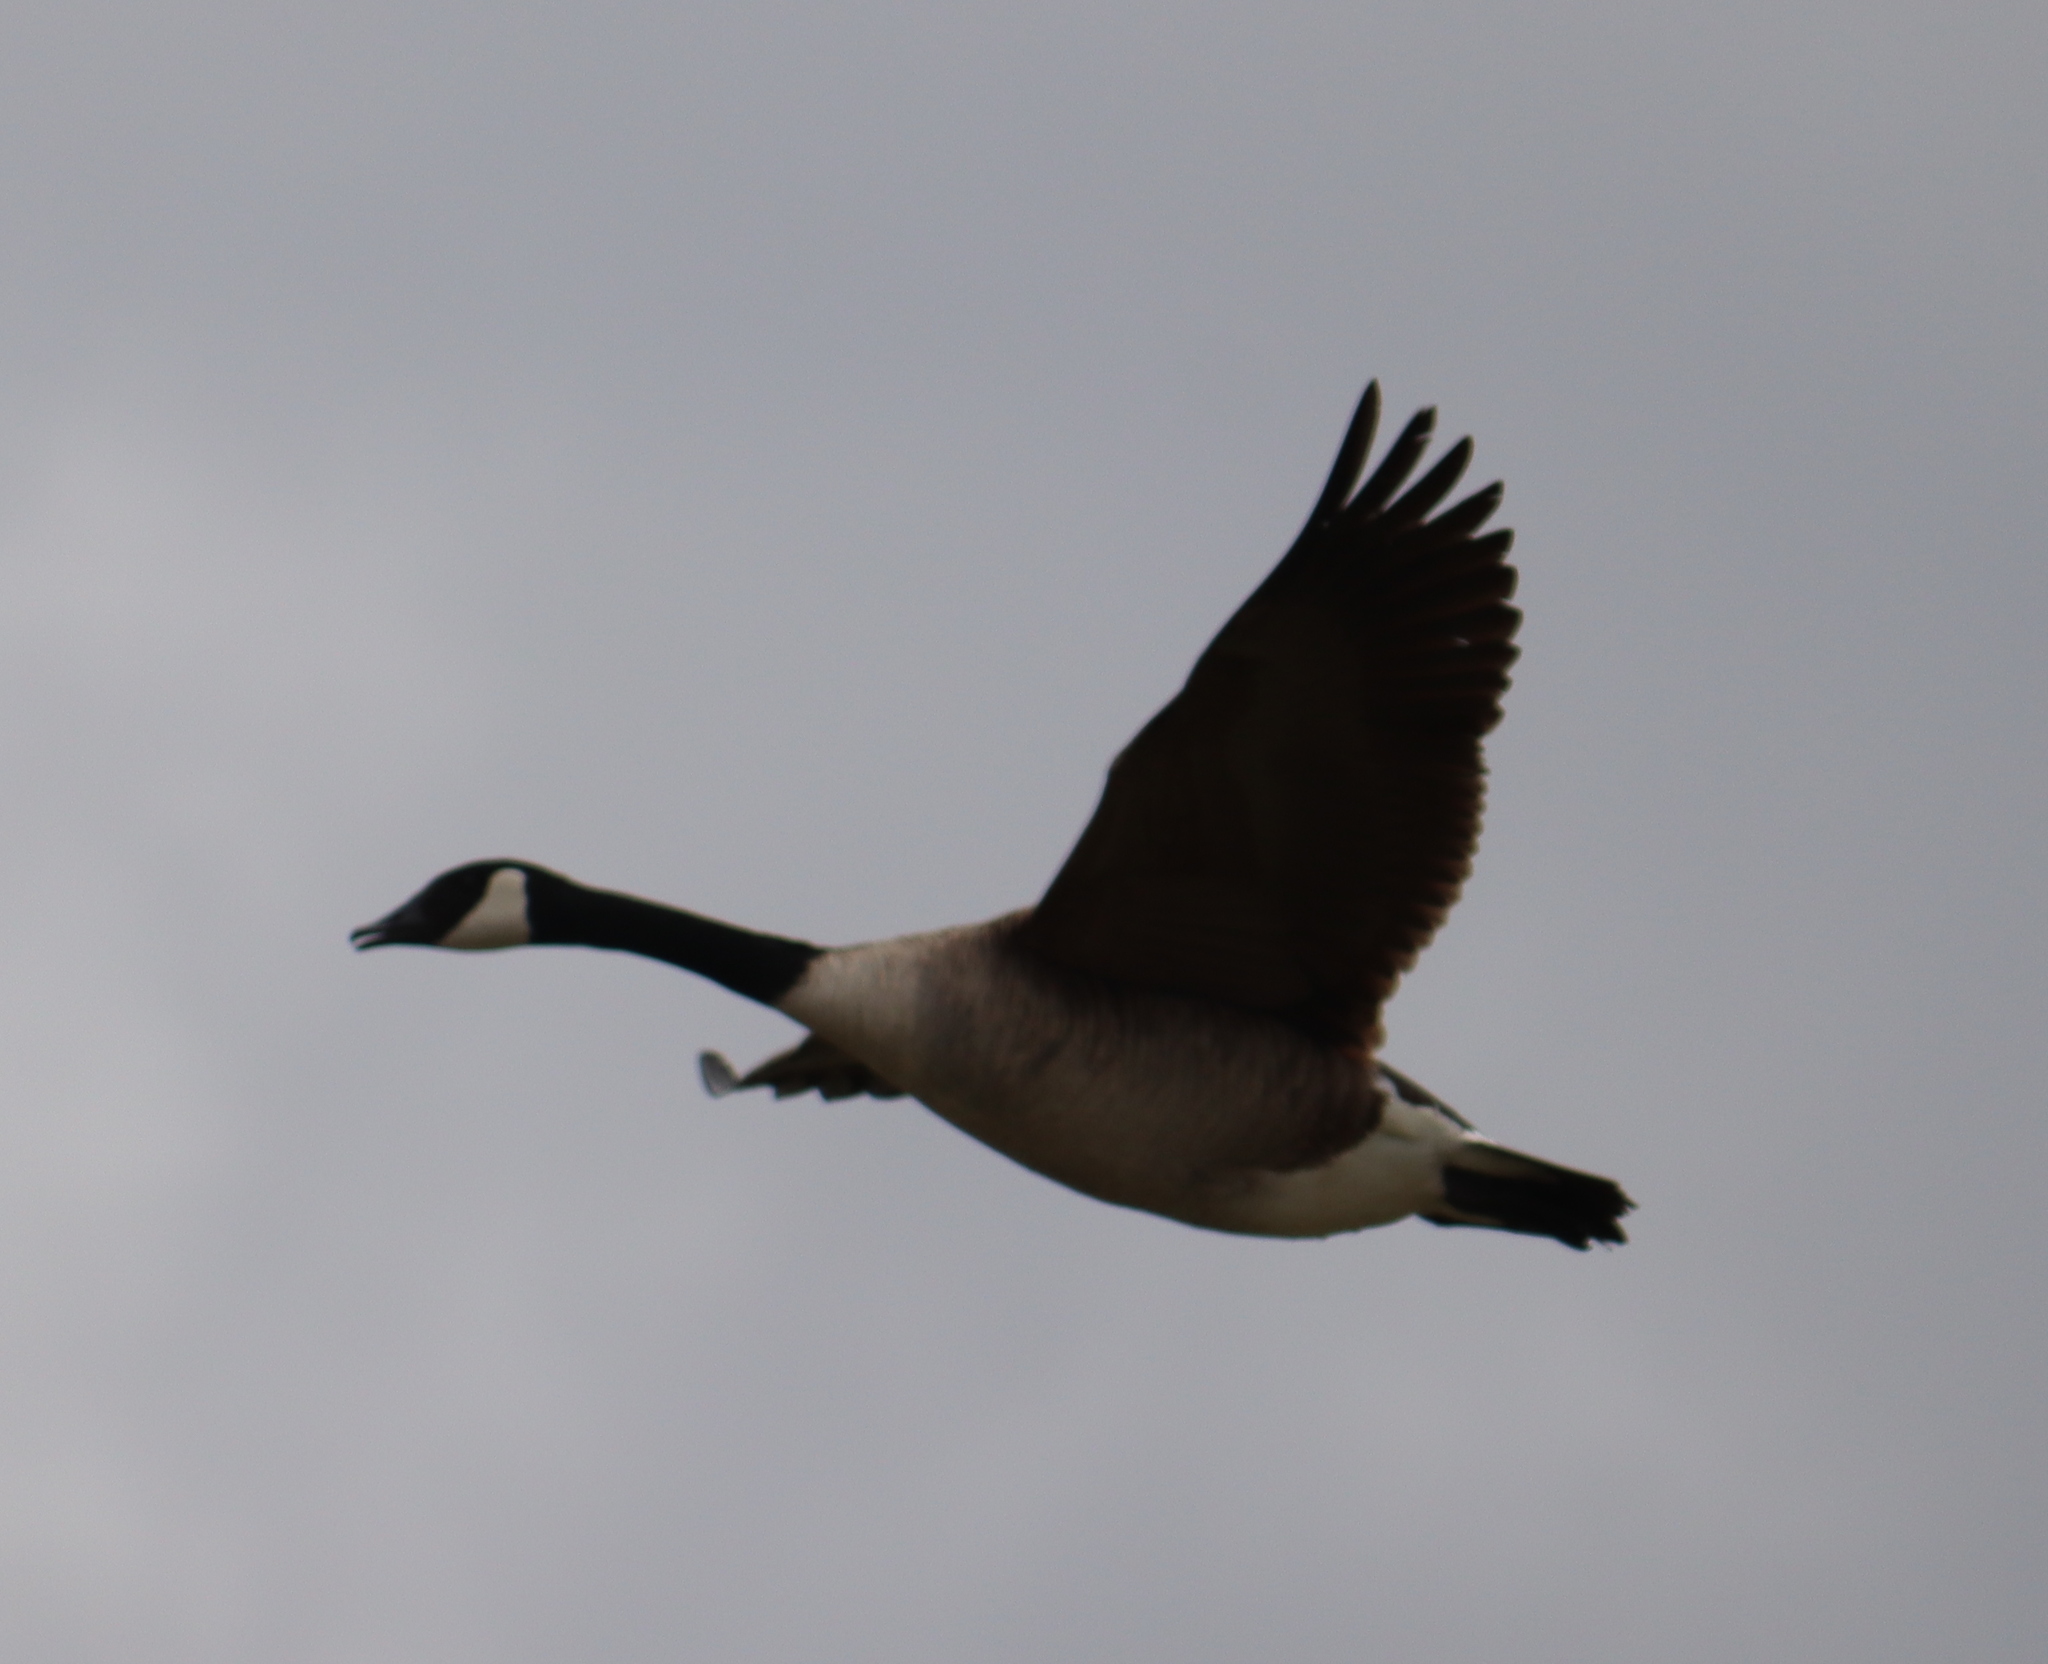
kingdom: Animalia
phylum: Chordata
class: Aves
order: Anseriformes
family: Anatidae
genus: Branta
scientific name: Branta canadensis
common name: Canada goose
